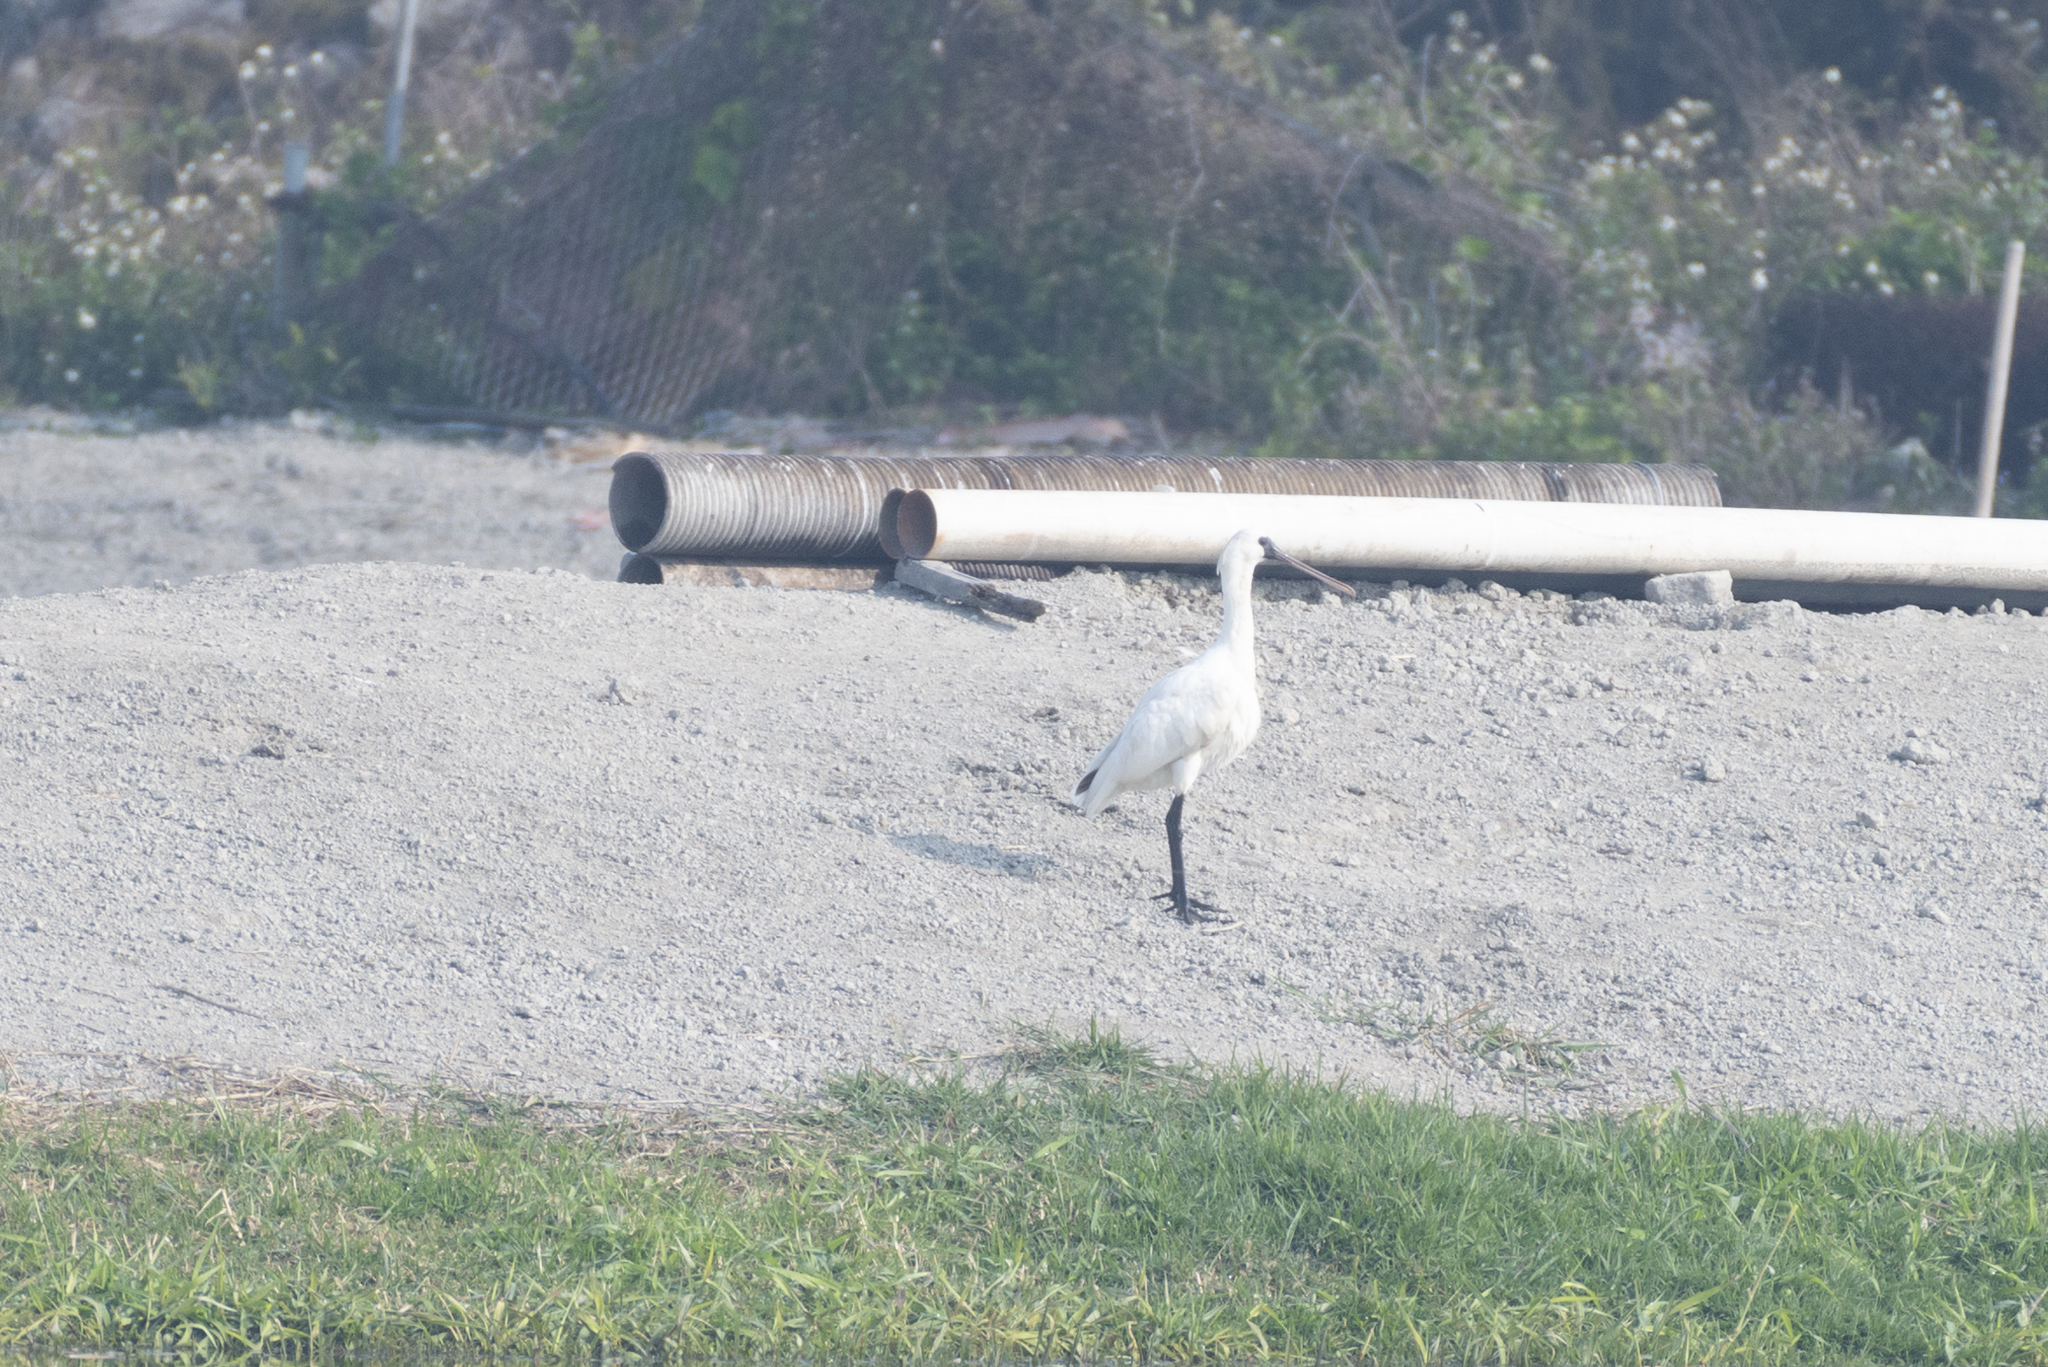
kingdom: Animalia
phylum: Chordata
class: Aves
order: Pelecaniformes
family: Threskiornithidae
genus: Platalea
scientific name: Platalea minor
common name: Black-faced spoonbill
